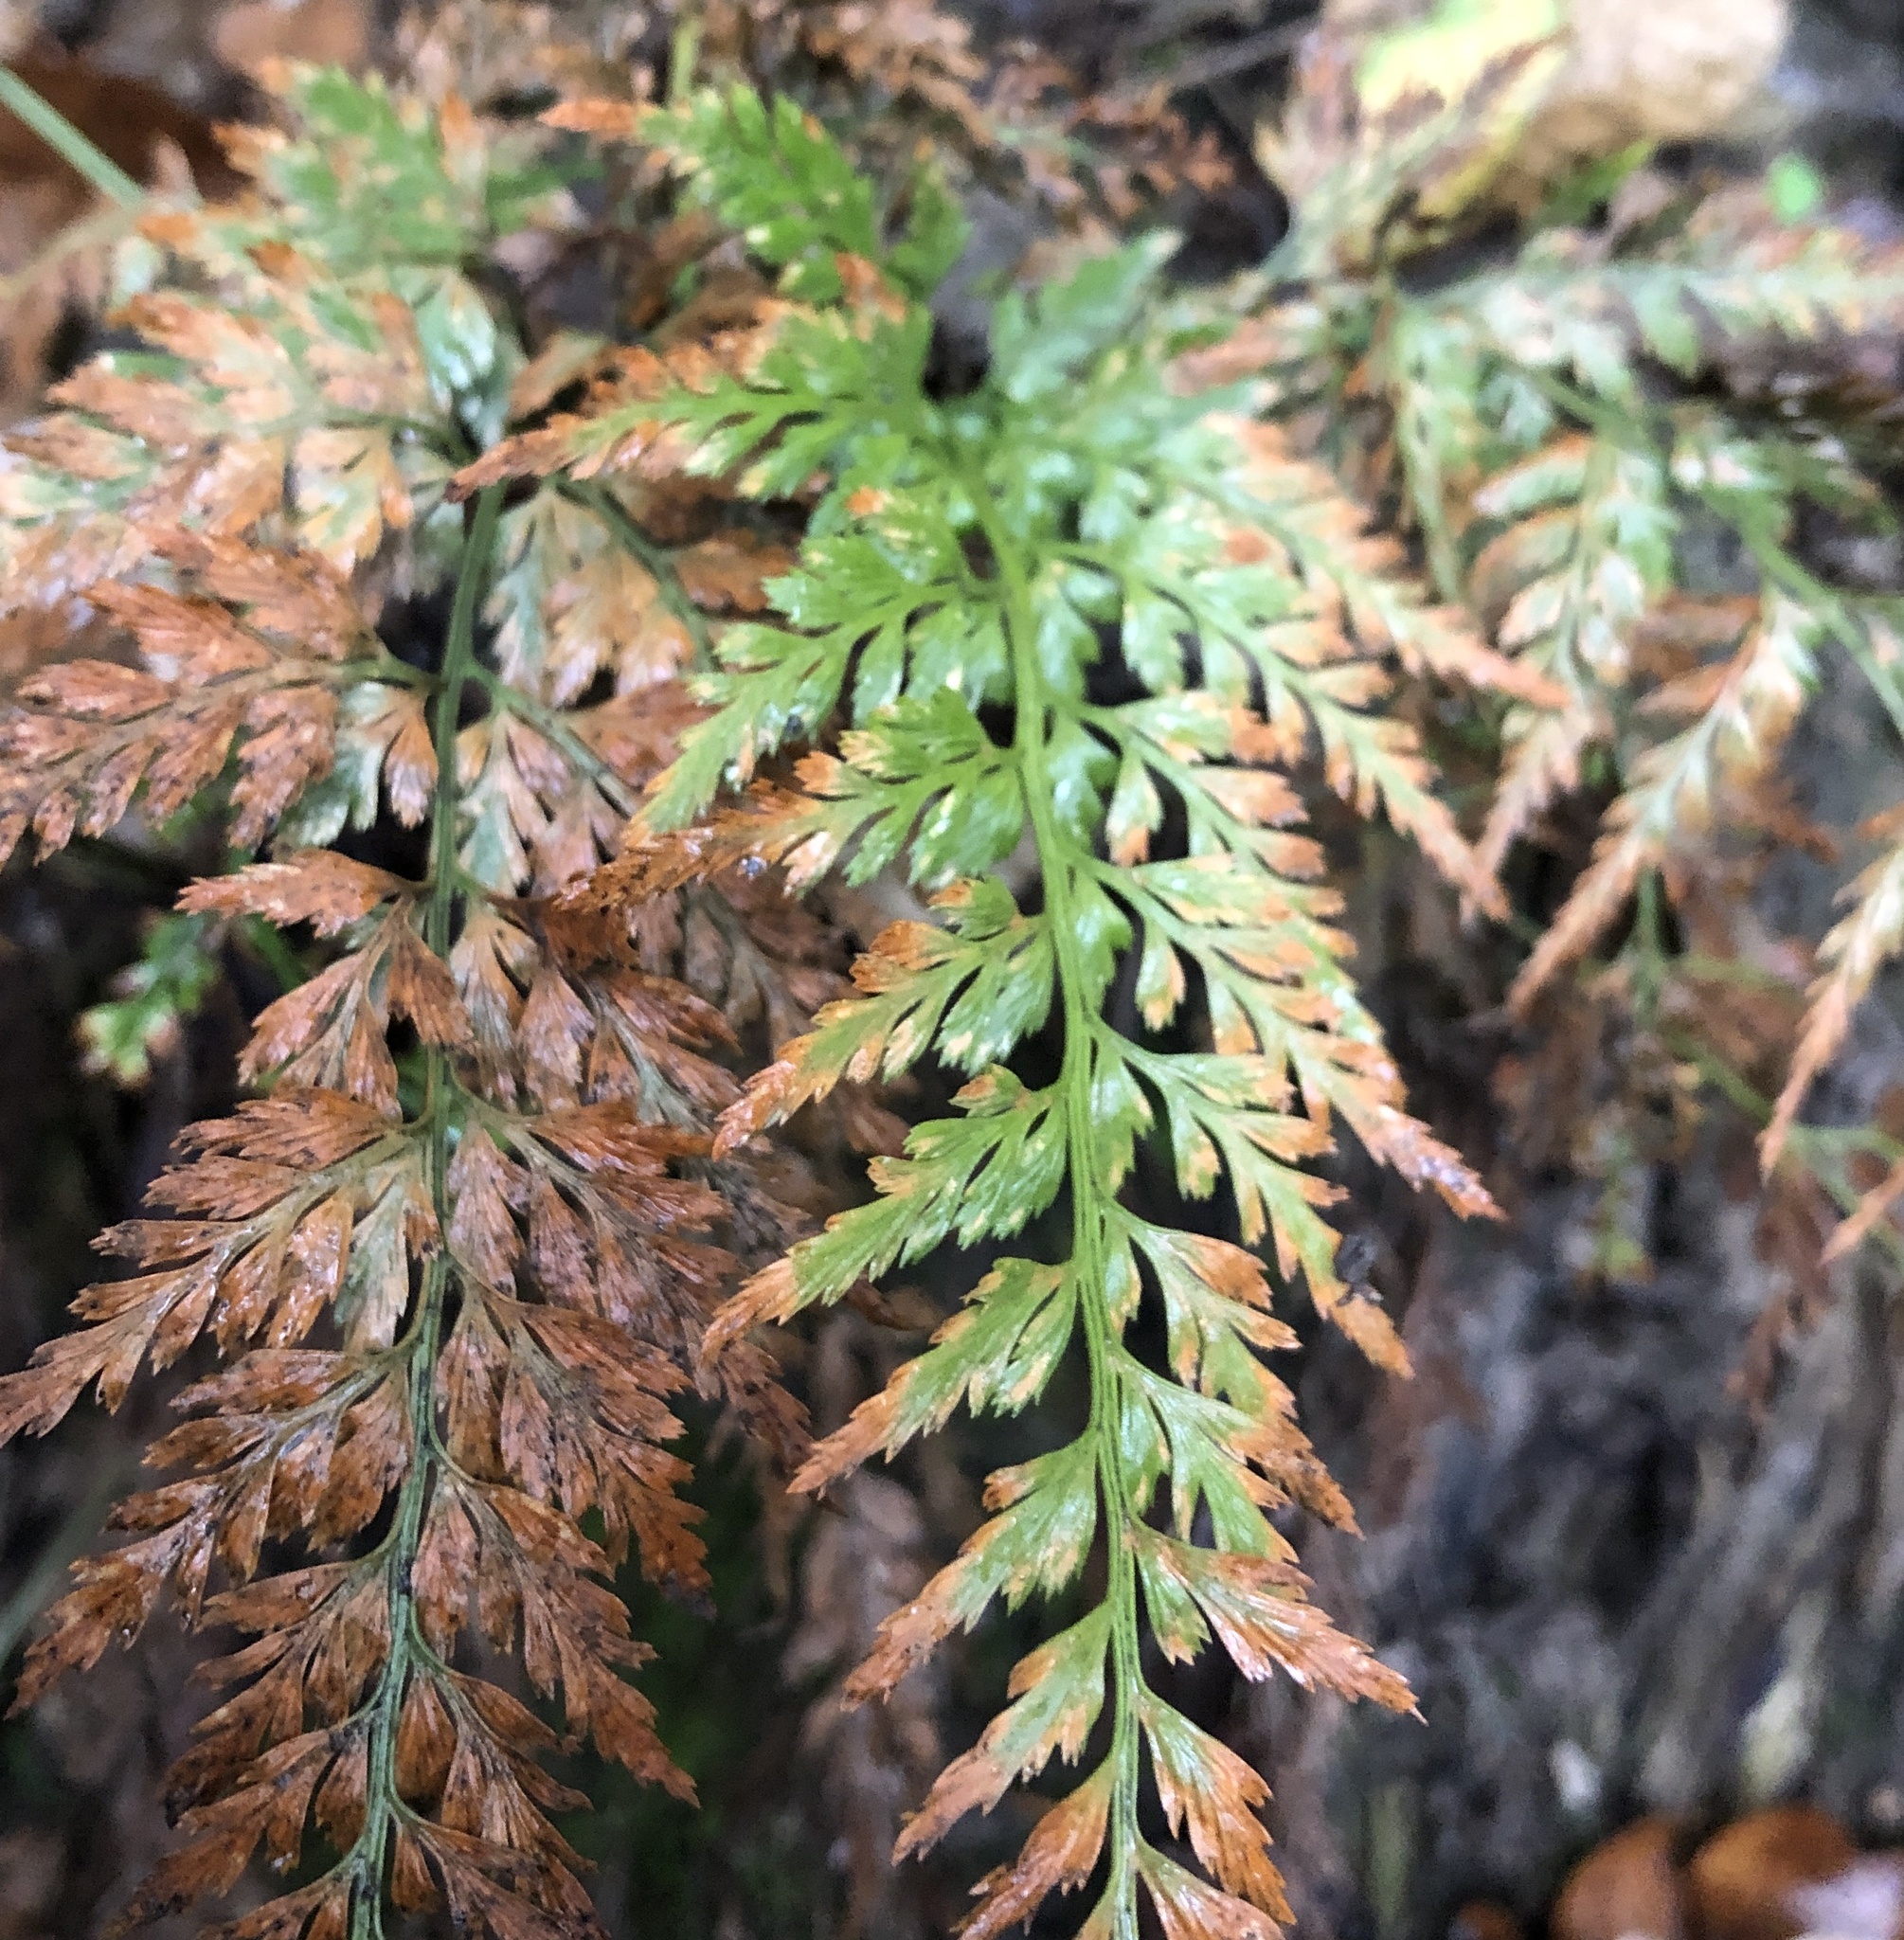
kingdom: Plantae
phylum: Tracheophyta
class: Polypodiopsida
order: Polypodiales
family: Aspleniaceae
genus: Asplenium
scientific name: Asplenium adiantum-nigrum
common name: Black spleenwort
